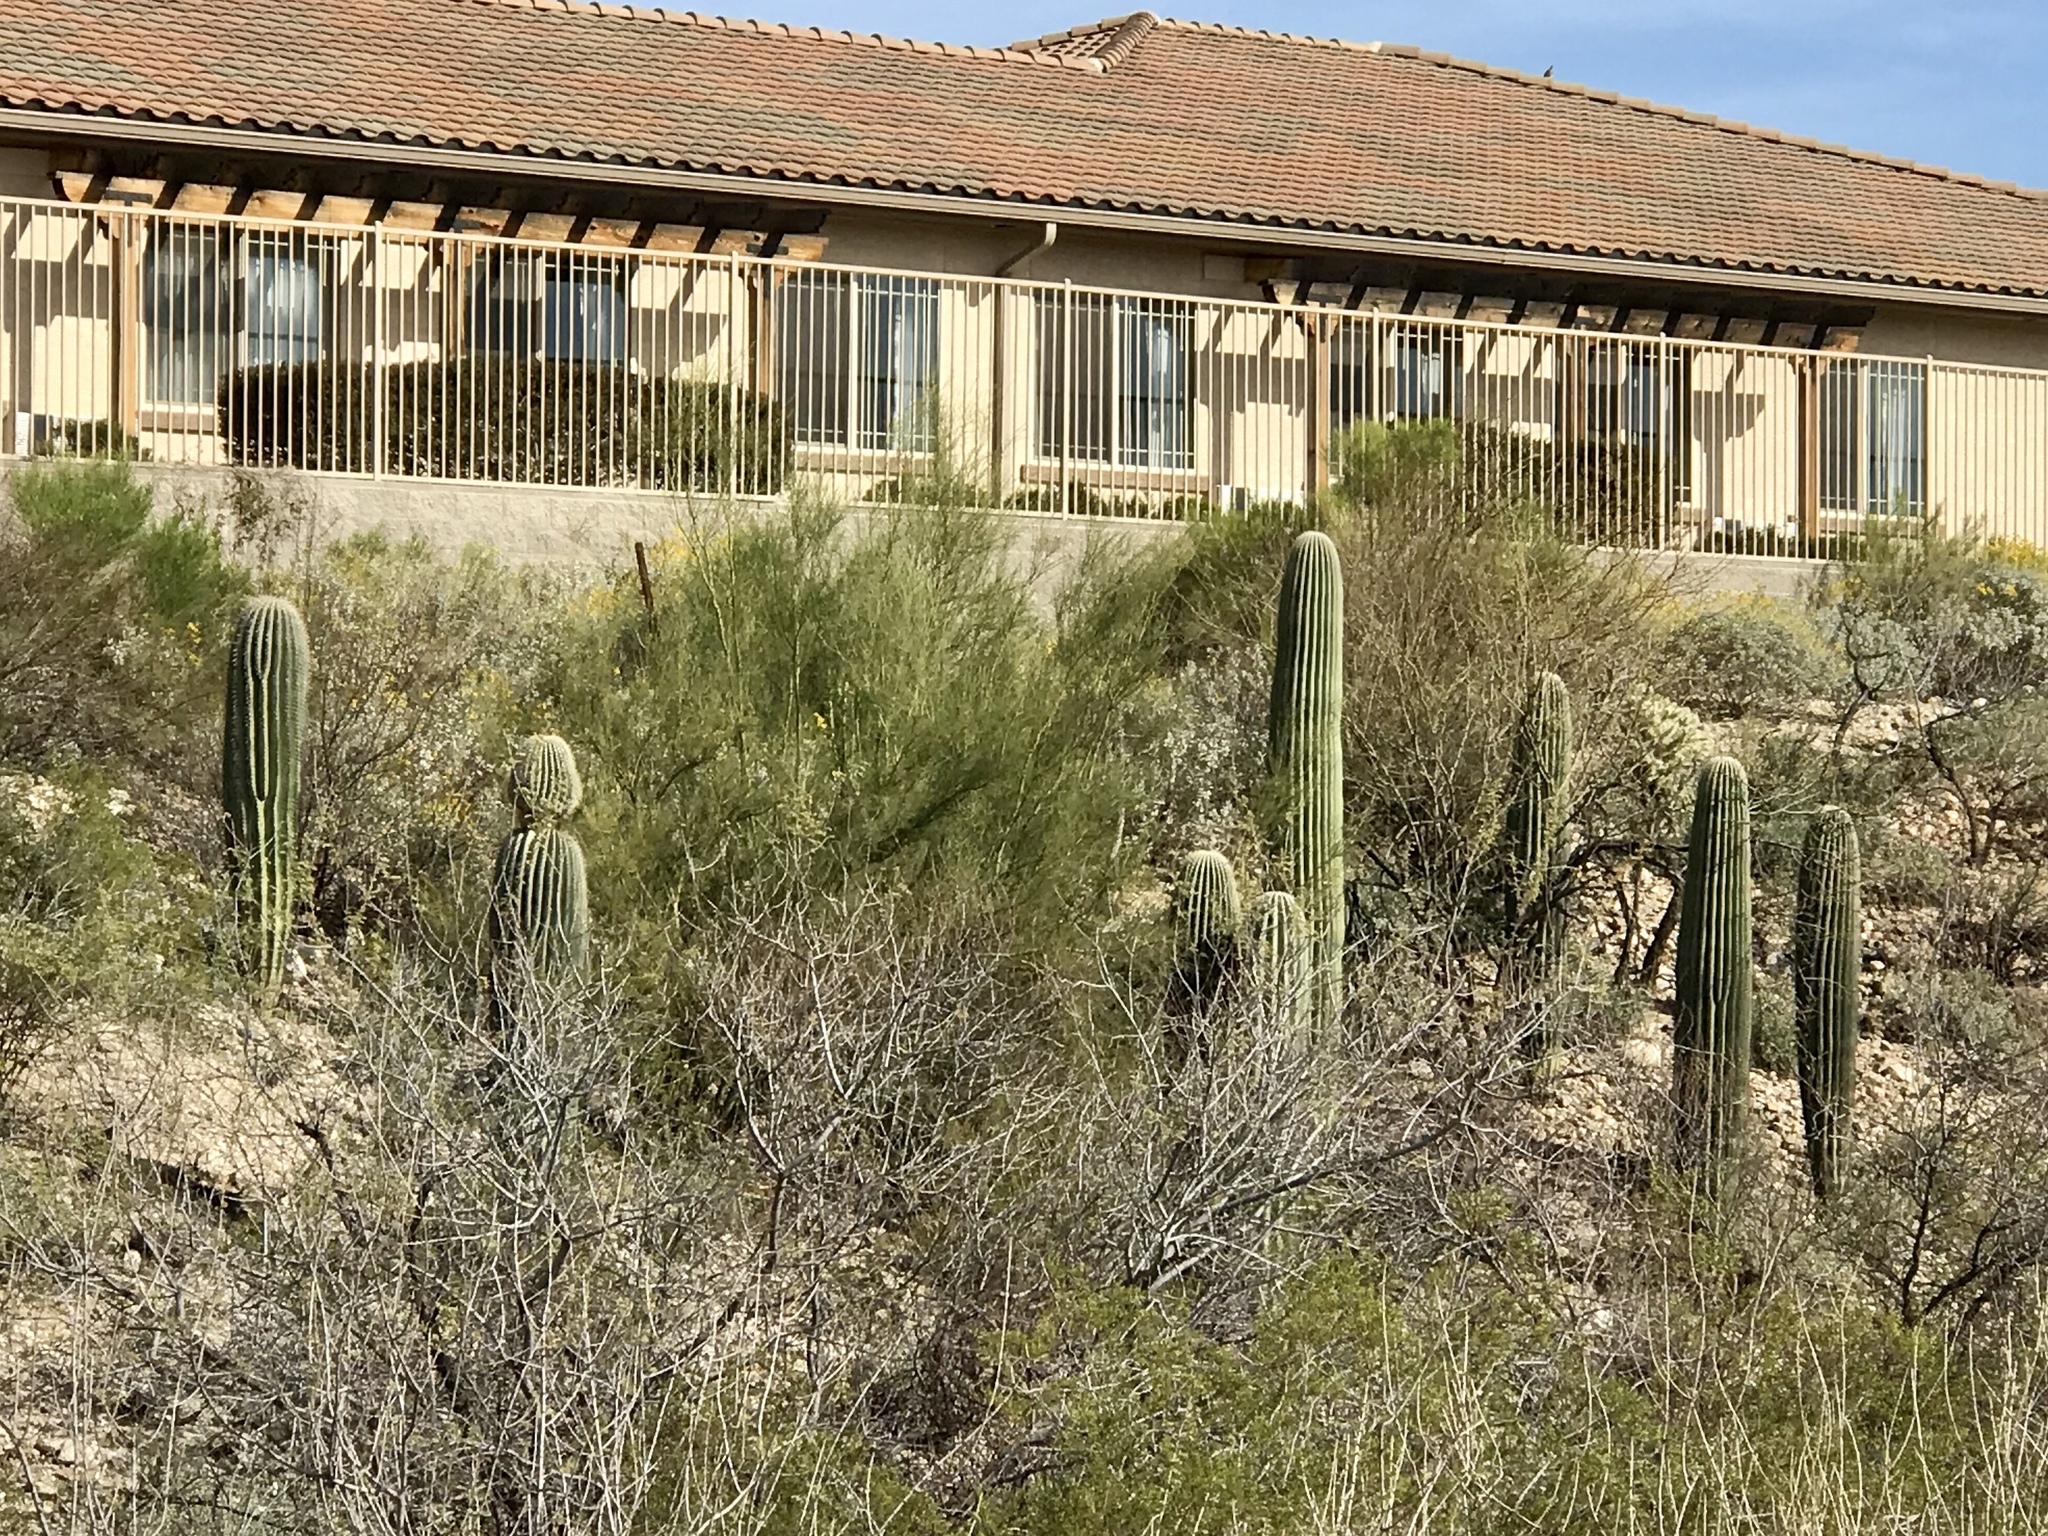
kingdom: Plantae
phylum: Tracheophyta
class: Magnoliopsida
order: Caryophyllales
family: Cactaceae
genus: Carnegiea
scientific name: Carnegiea gigantea
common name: Saguaro
